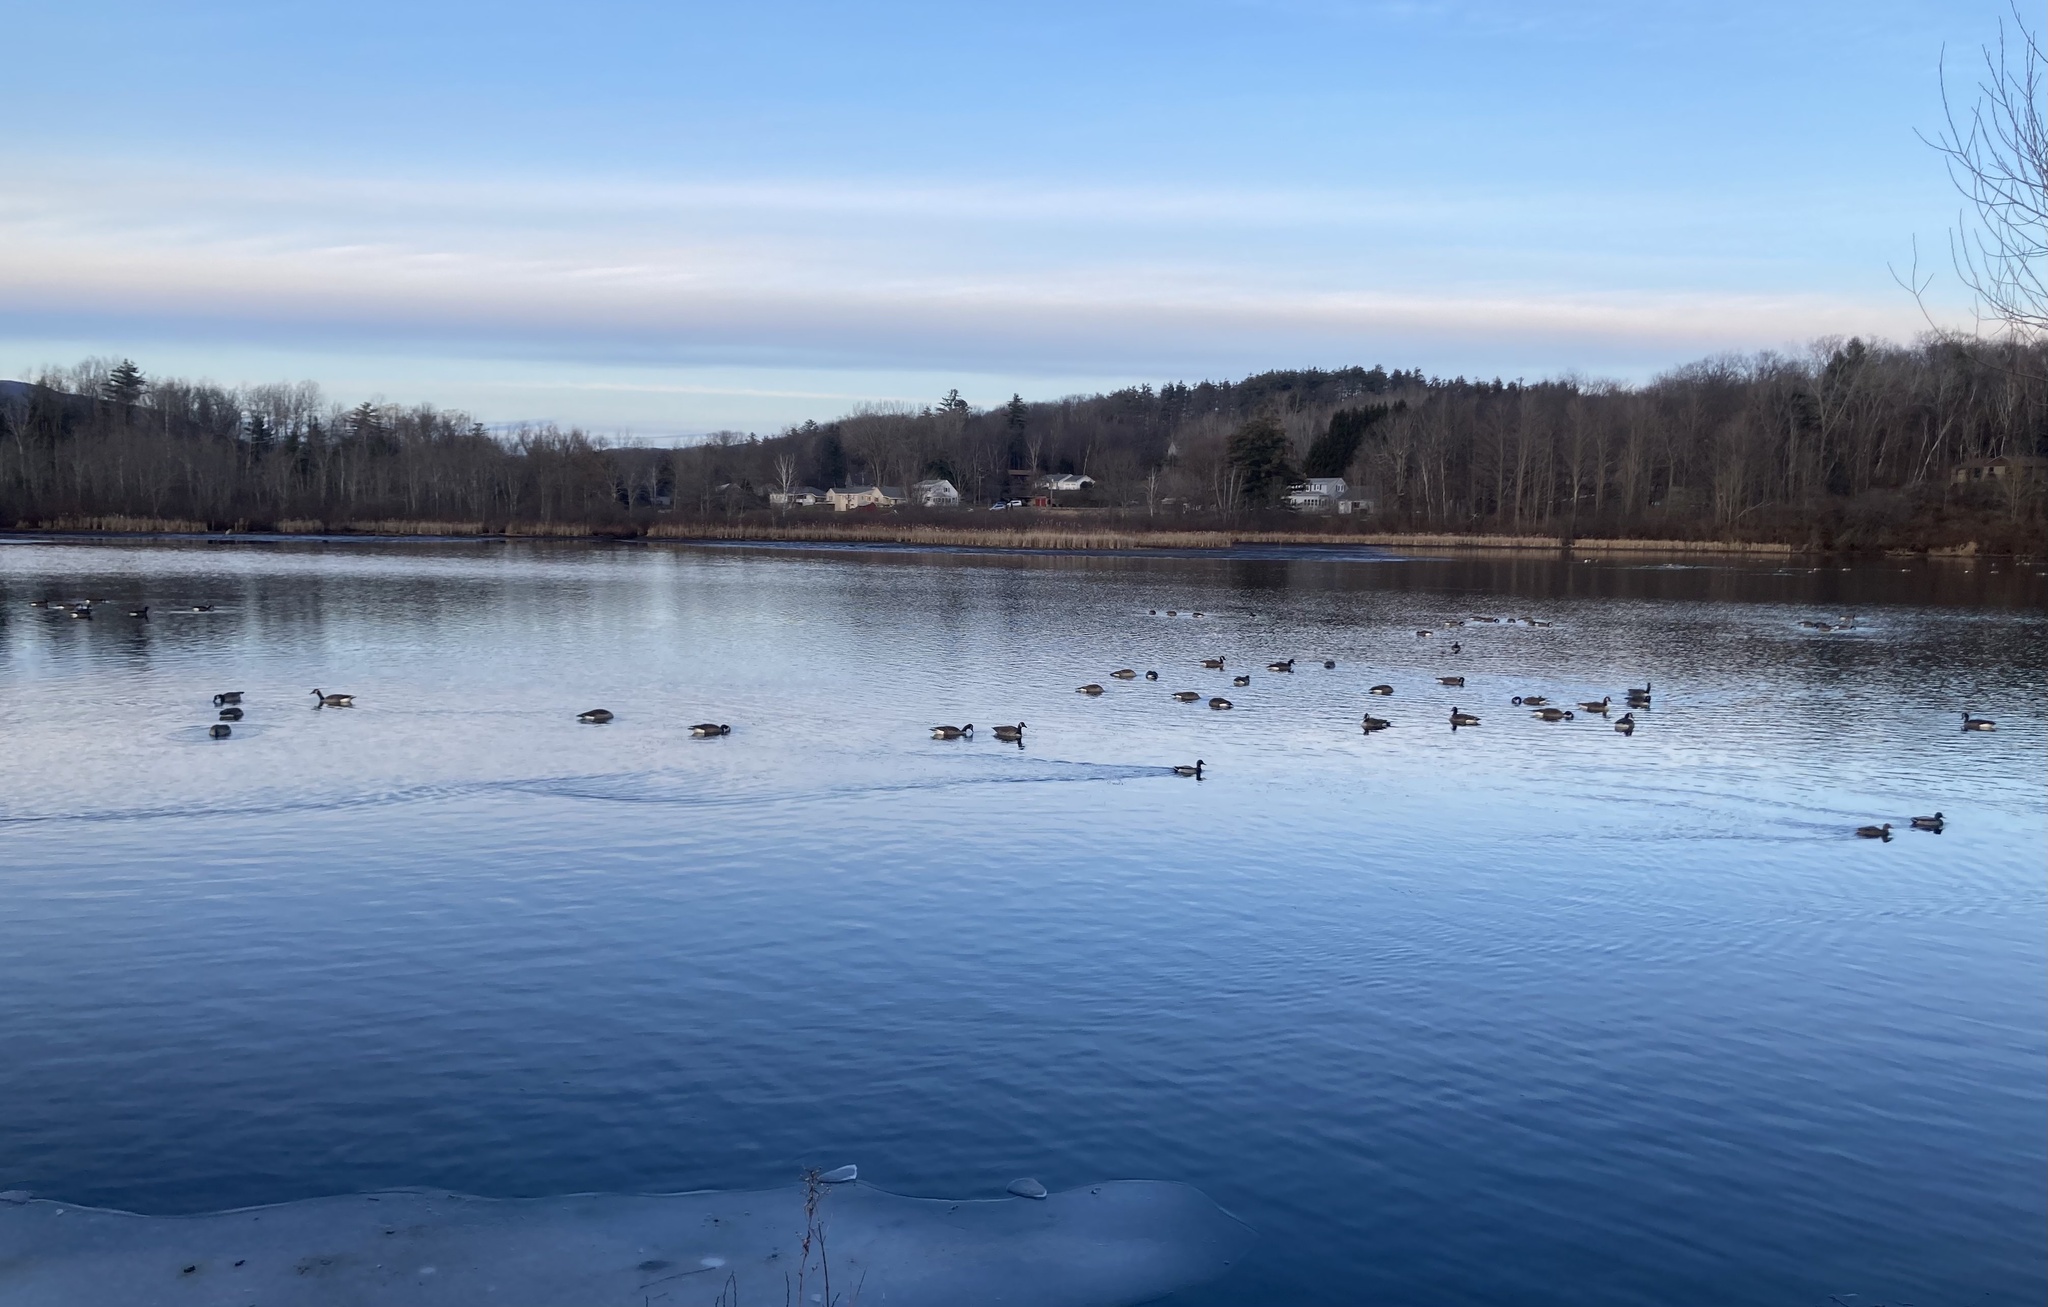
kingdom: Animalia
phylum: Chordata
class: Aves
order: Anseriformes
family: Anatidae
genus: Branta
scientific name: Branta canadensis
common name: Canada goose
